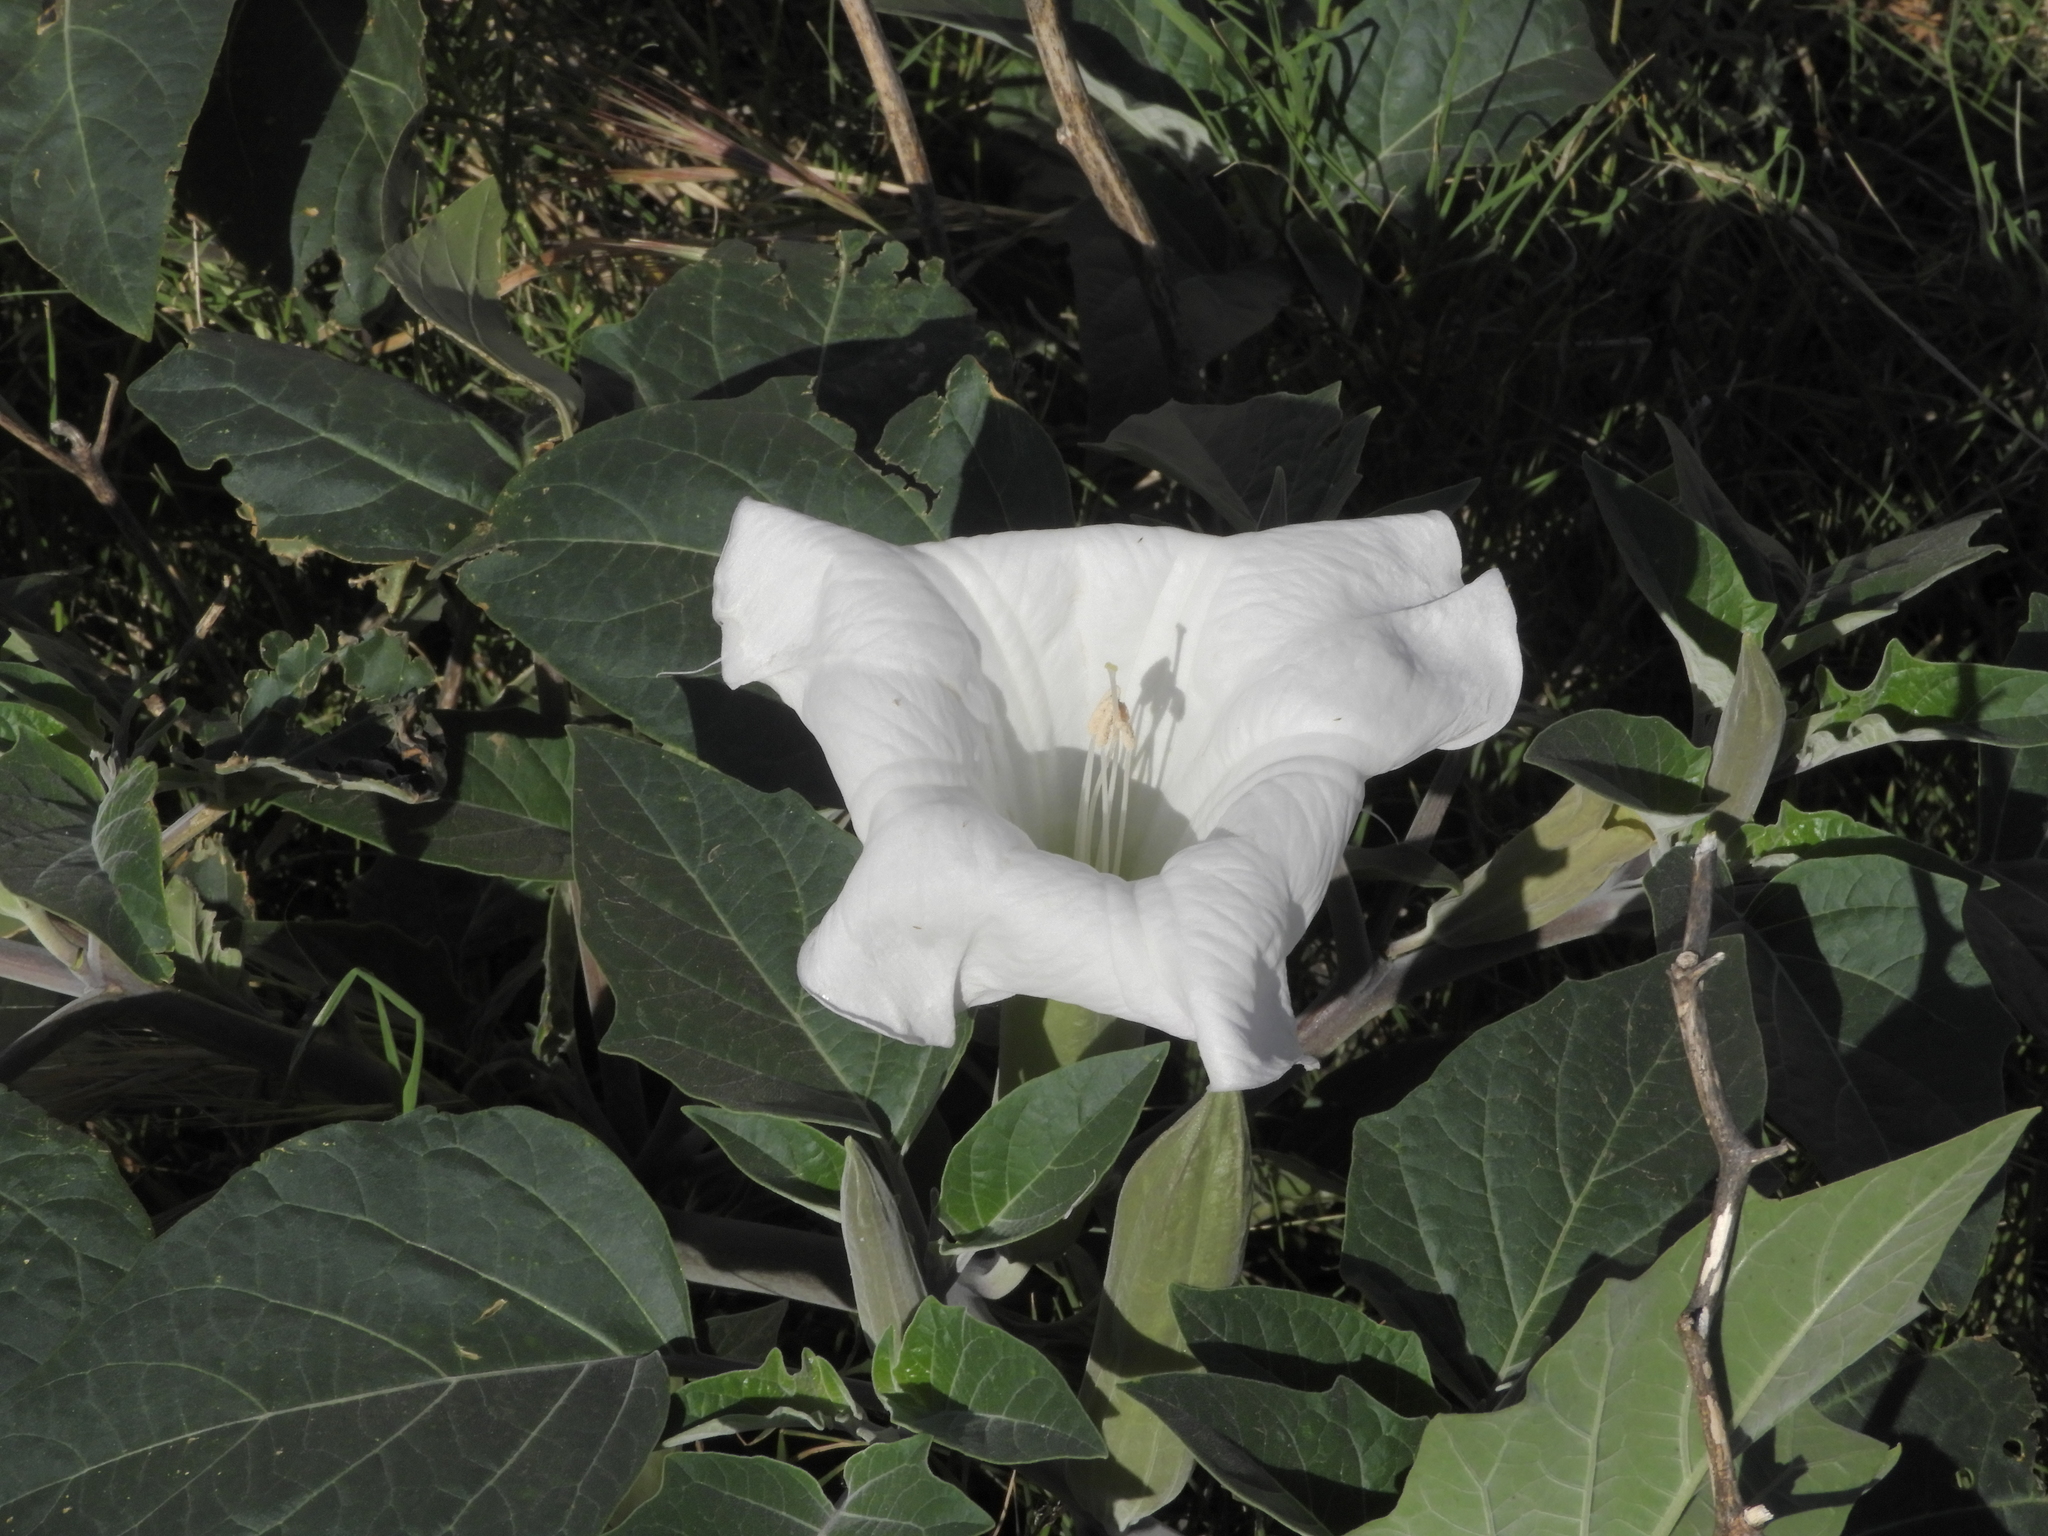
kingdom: Plantae
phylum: Tracheophyta
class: Magnoliopsida
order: Solanales
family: Solanaceae
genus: Datura
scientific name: Datura wrightii
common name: Sacred thorn-apple
